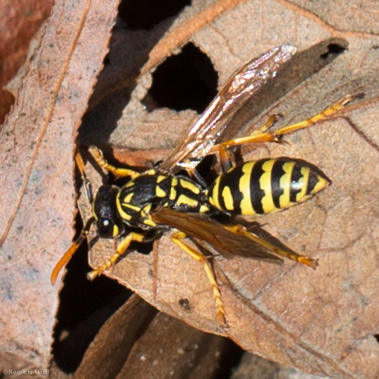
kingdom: Animalia
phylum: Arthropoda
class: Insecta
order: Hymenoptera
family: Eumenidae
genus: Polistes
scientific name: Polistes dominula
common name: Paper wasp
